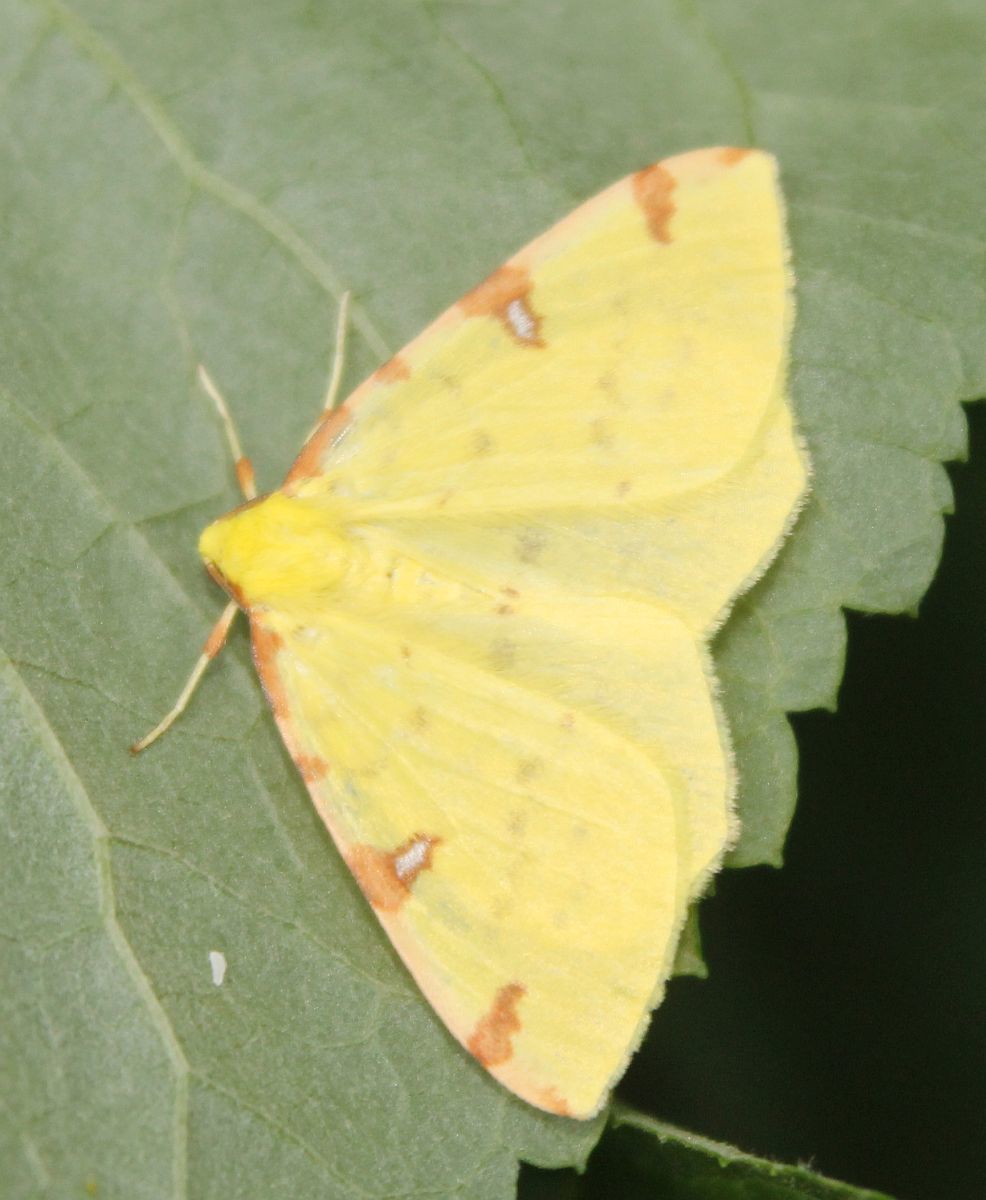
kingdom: Animalia
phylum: Arthropoda
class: Insecta
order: Lepidoptera
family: Geometridae
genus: Opisthograptis
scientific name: Opisthograptis luteolata
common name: Brimstone moth
